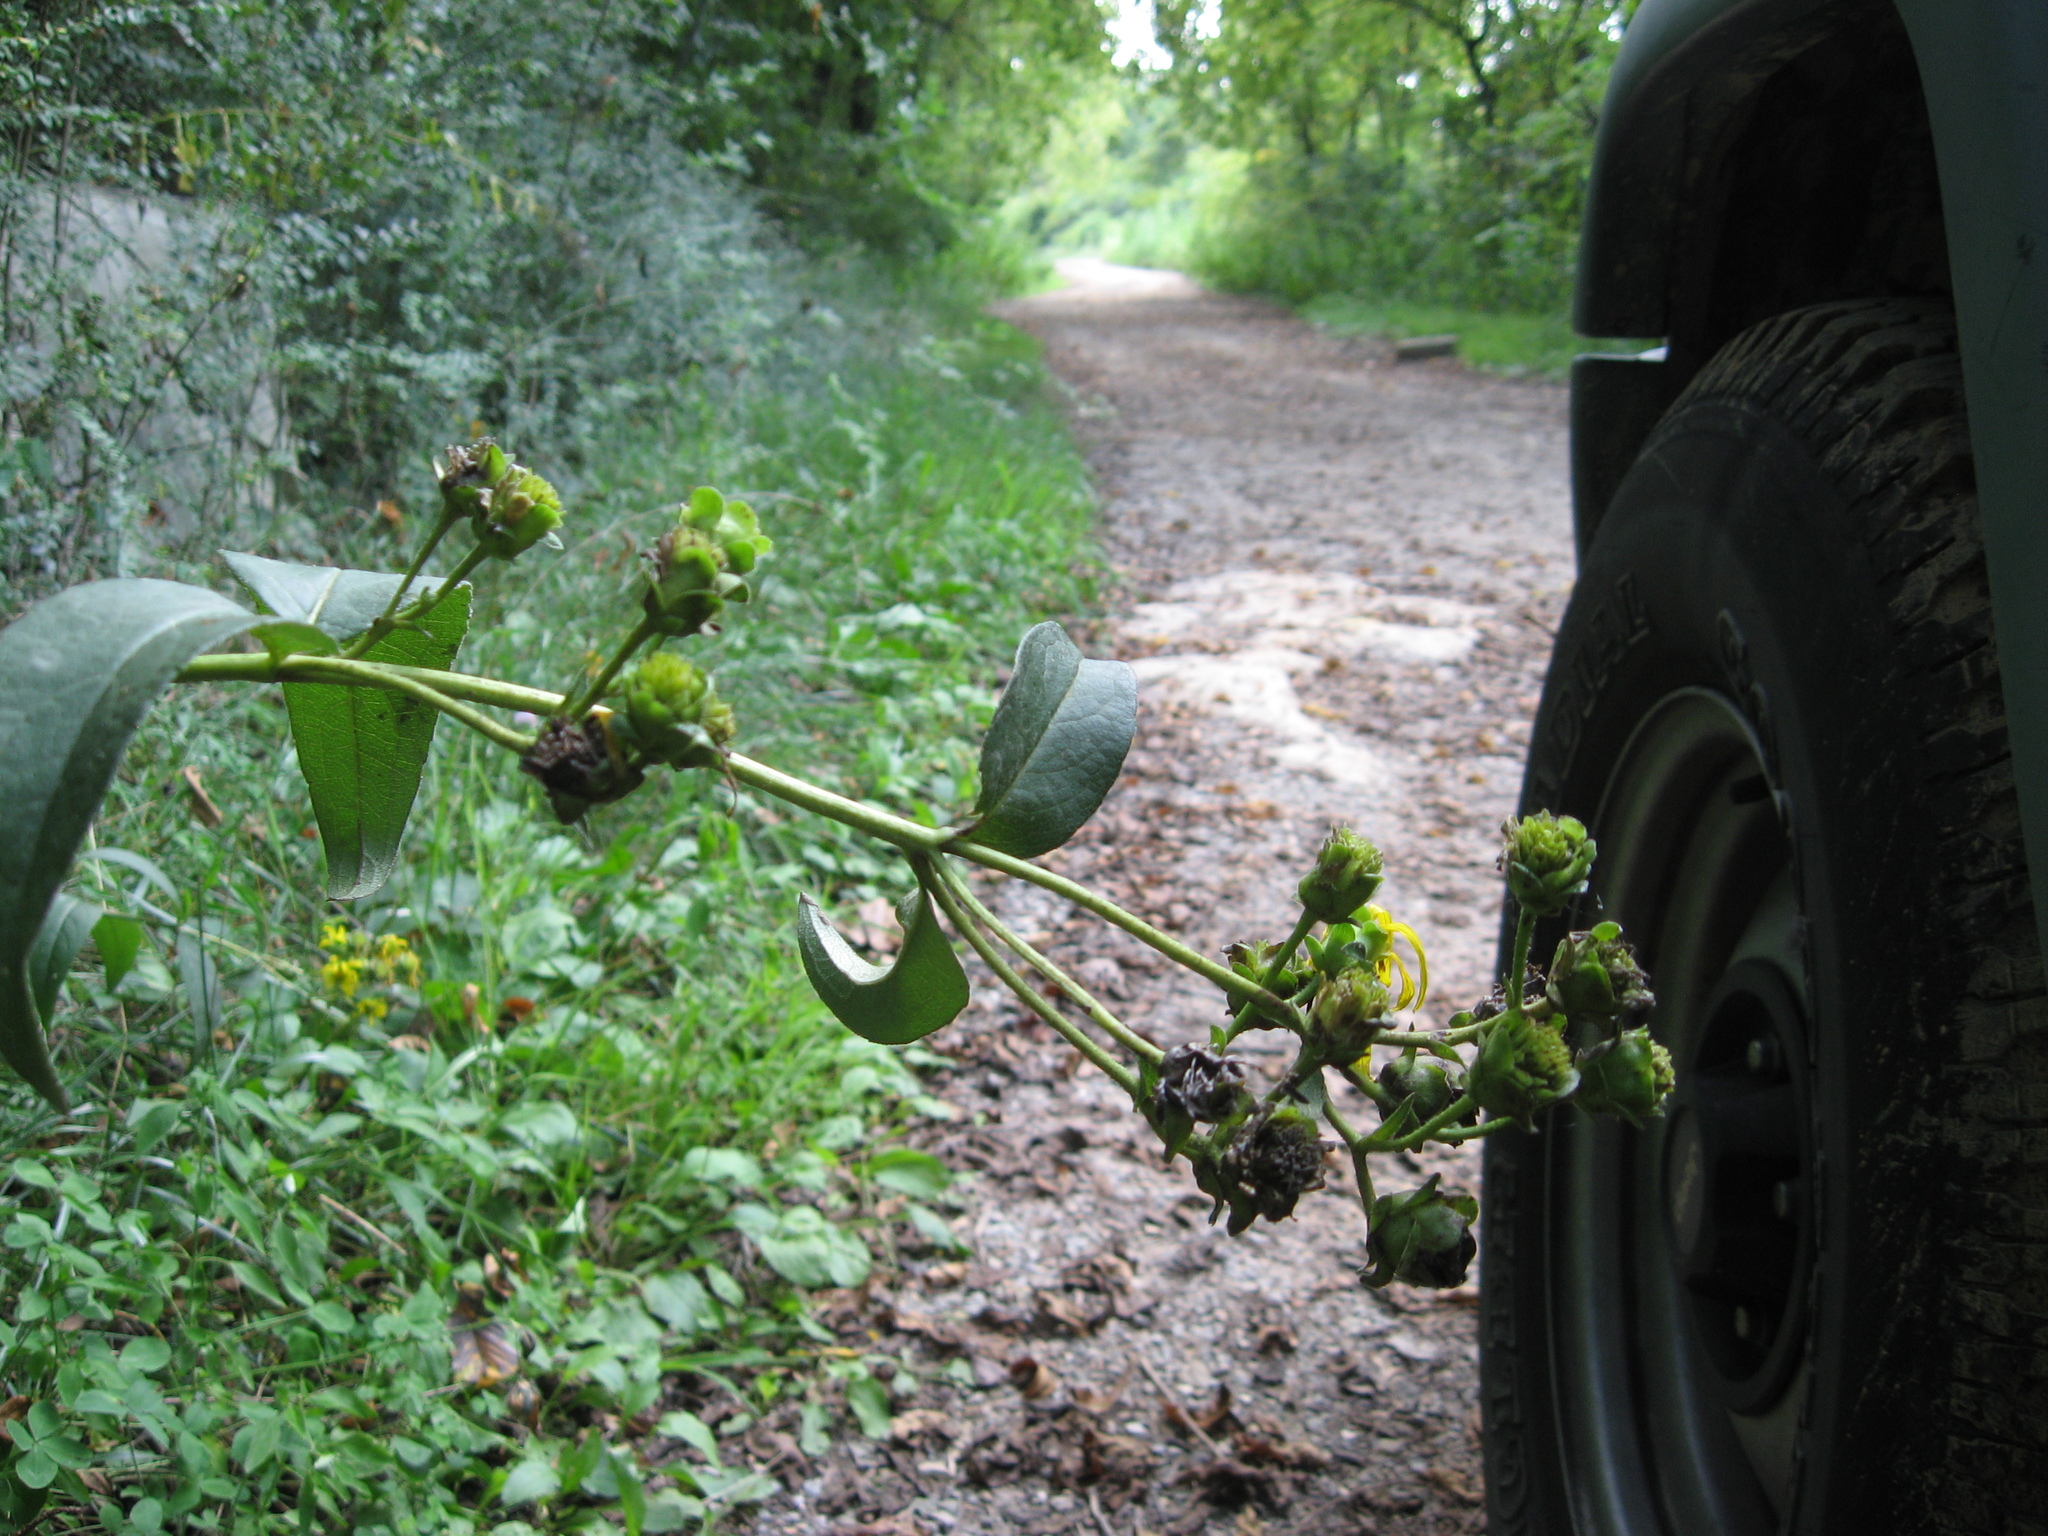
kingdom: Plantae
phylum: Tracheophyta
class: Magnoliopsida
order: Asterales
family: Asteraceae
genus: Silphium
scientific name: Silphium asteriscus
